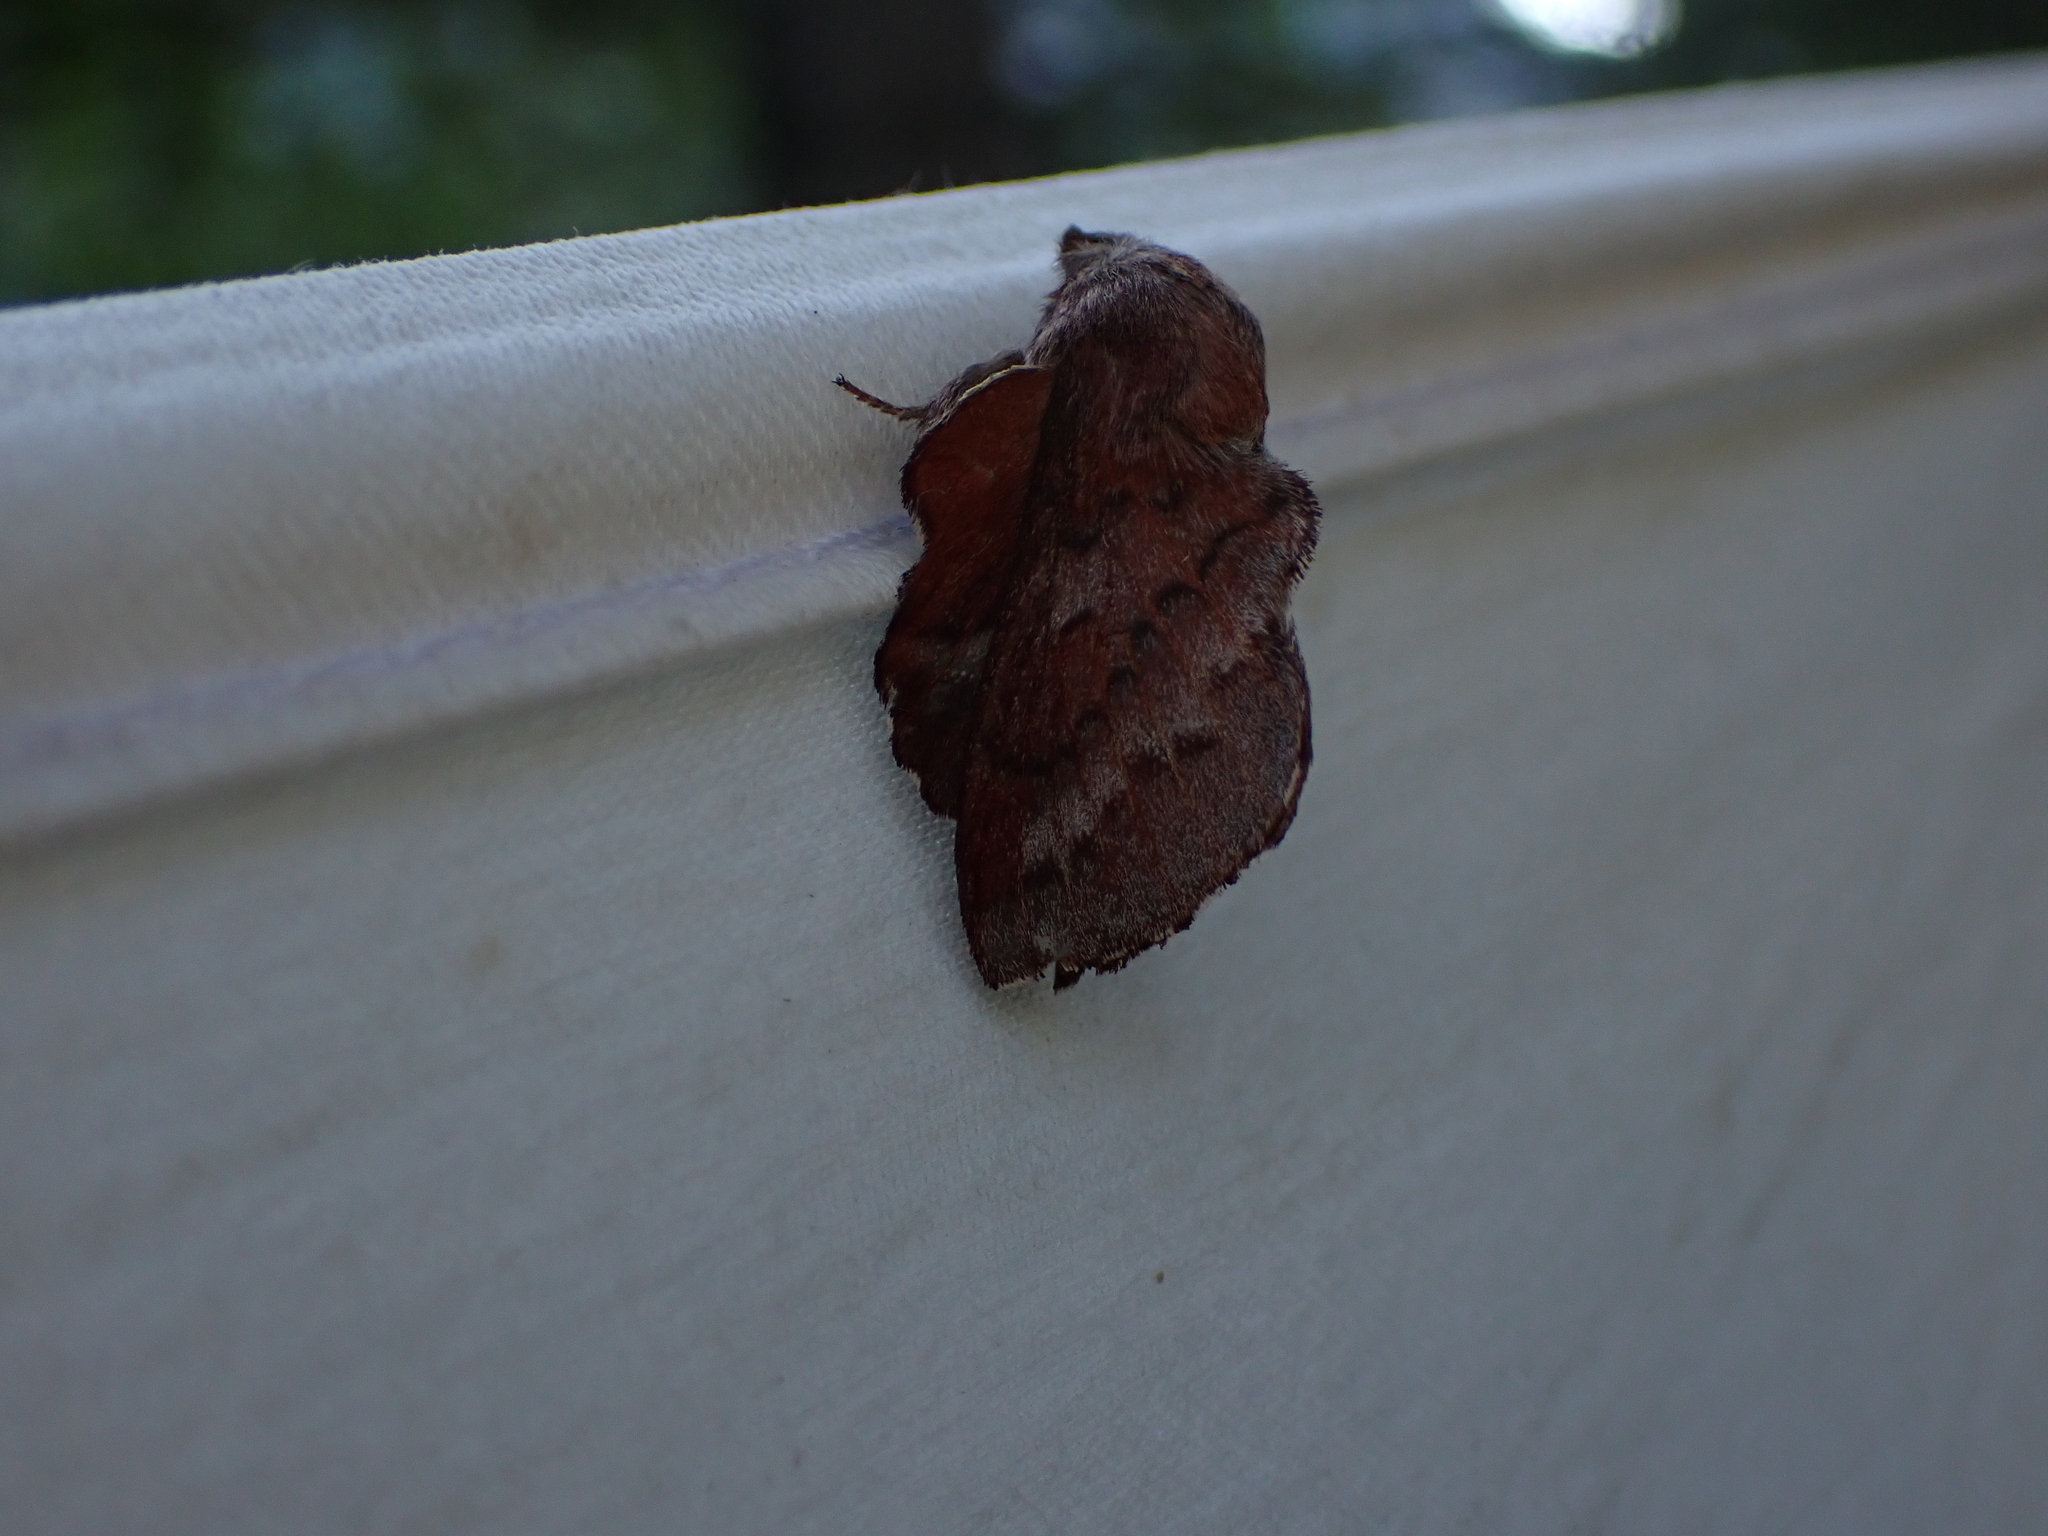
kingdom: Animalia
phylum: Arthropoda
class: Insecta
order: Lepidoptera
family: Lasiocampidae
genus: Phyllodesma
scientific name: Phyllodesma americana
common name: American lappet moth
